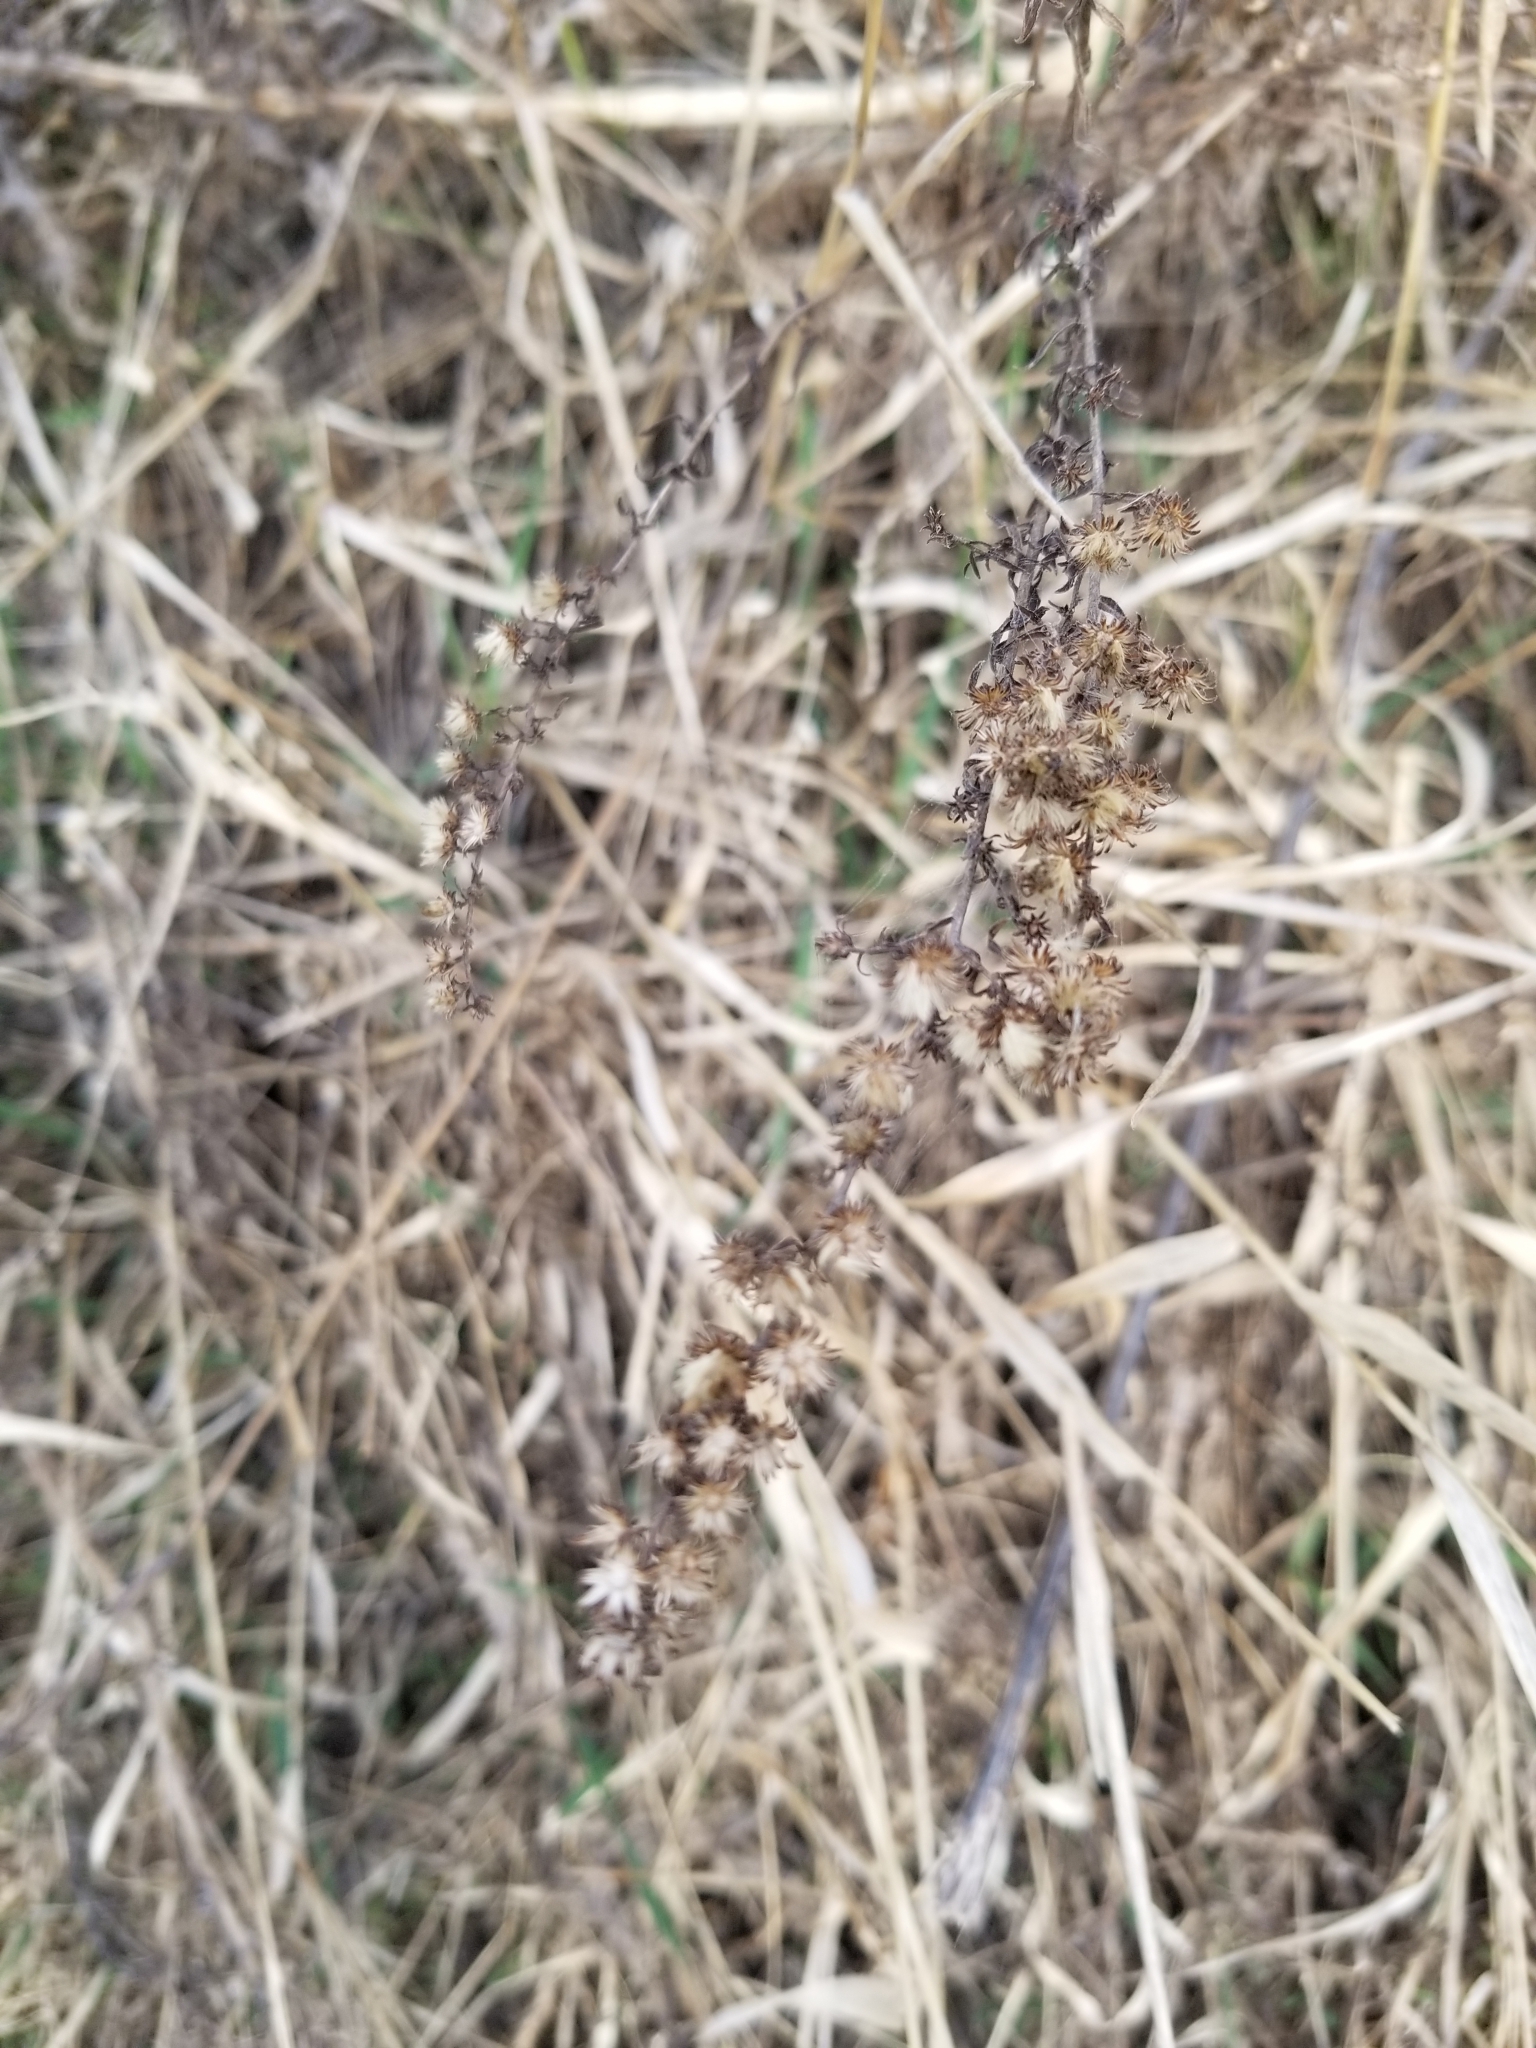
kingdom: Plantae
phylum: Tracheophyta
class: Magnoliopsida
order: Asterales
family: Asteraceae
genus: Symphyotrichum
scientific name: Symphyotrichum ericoides
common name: Heath aster
